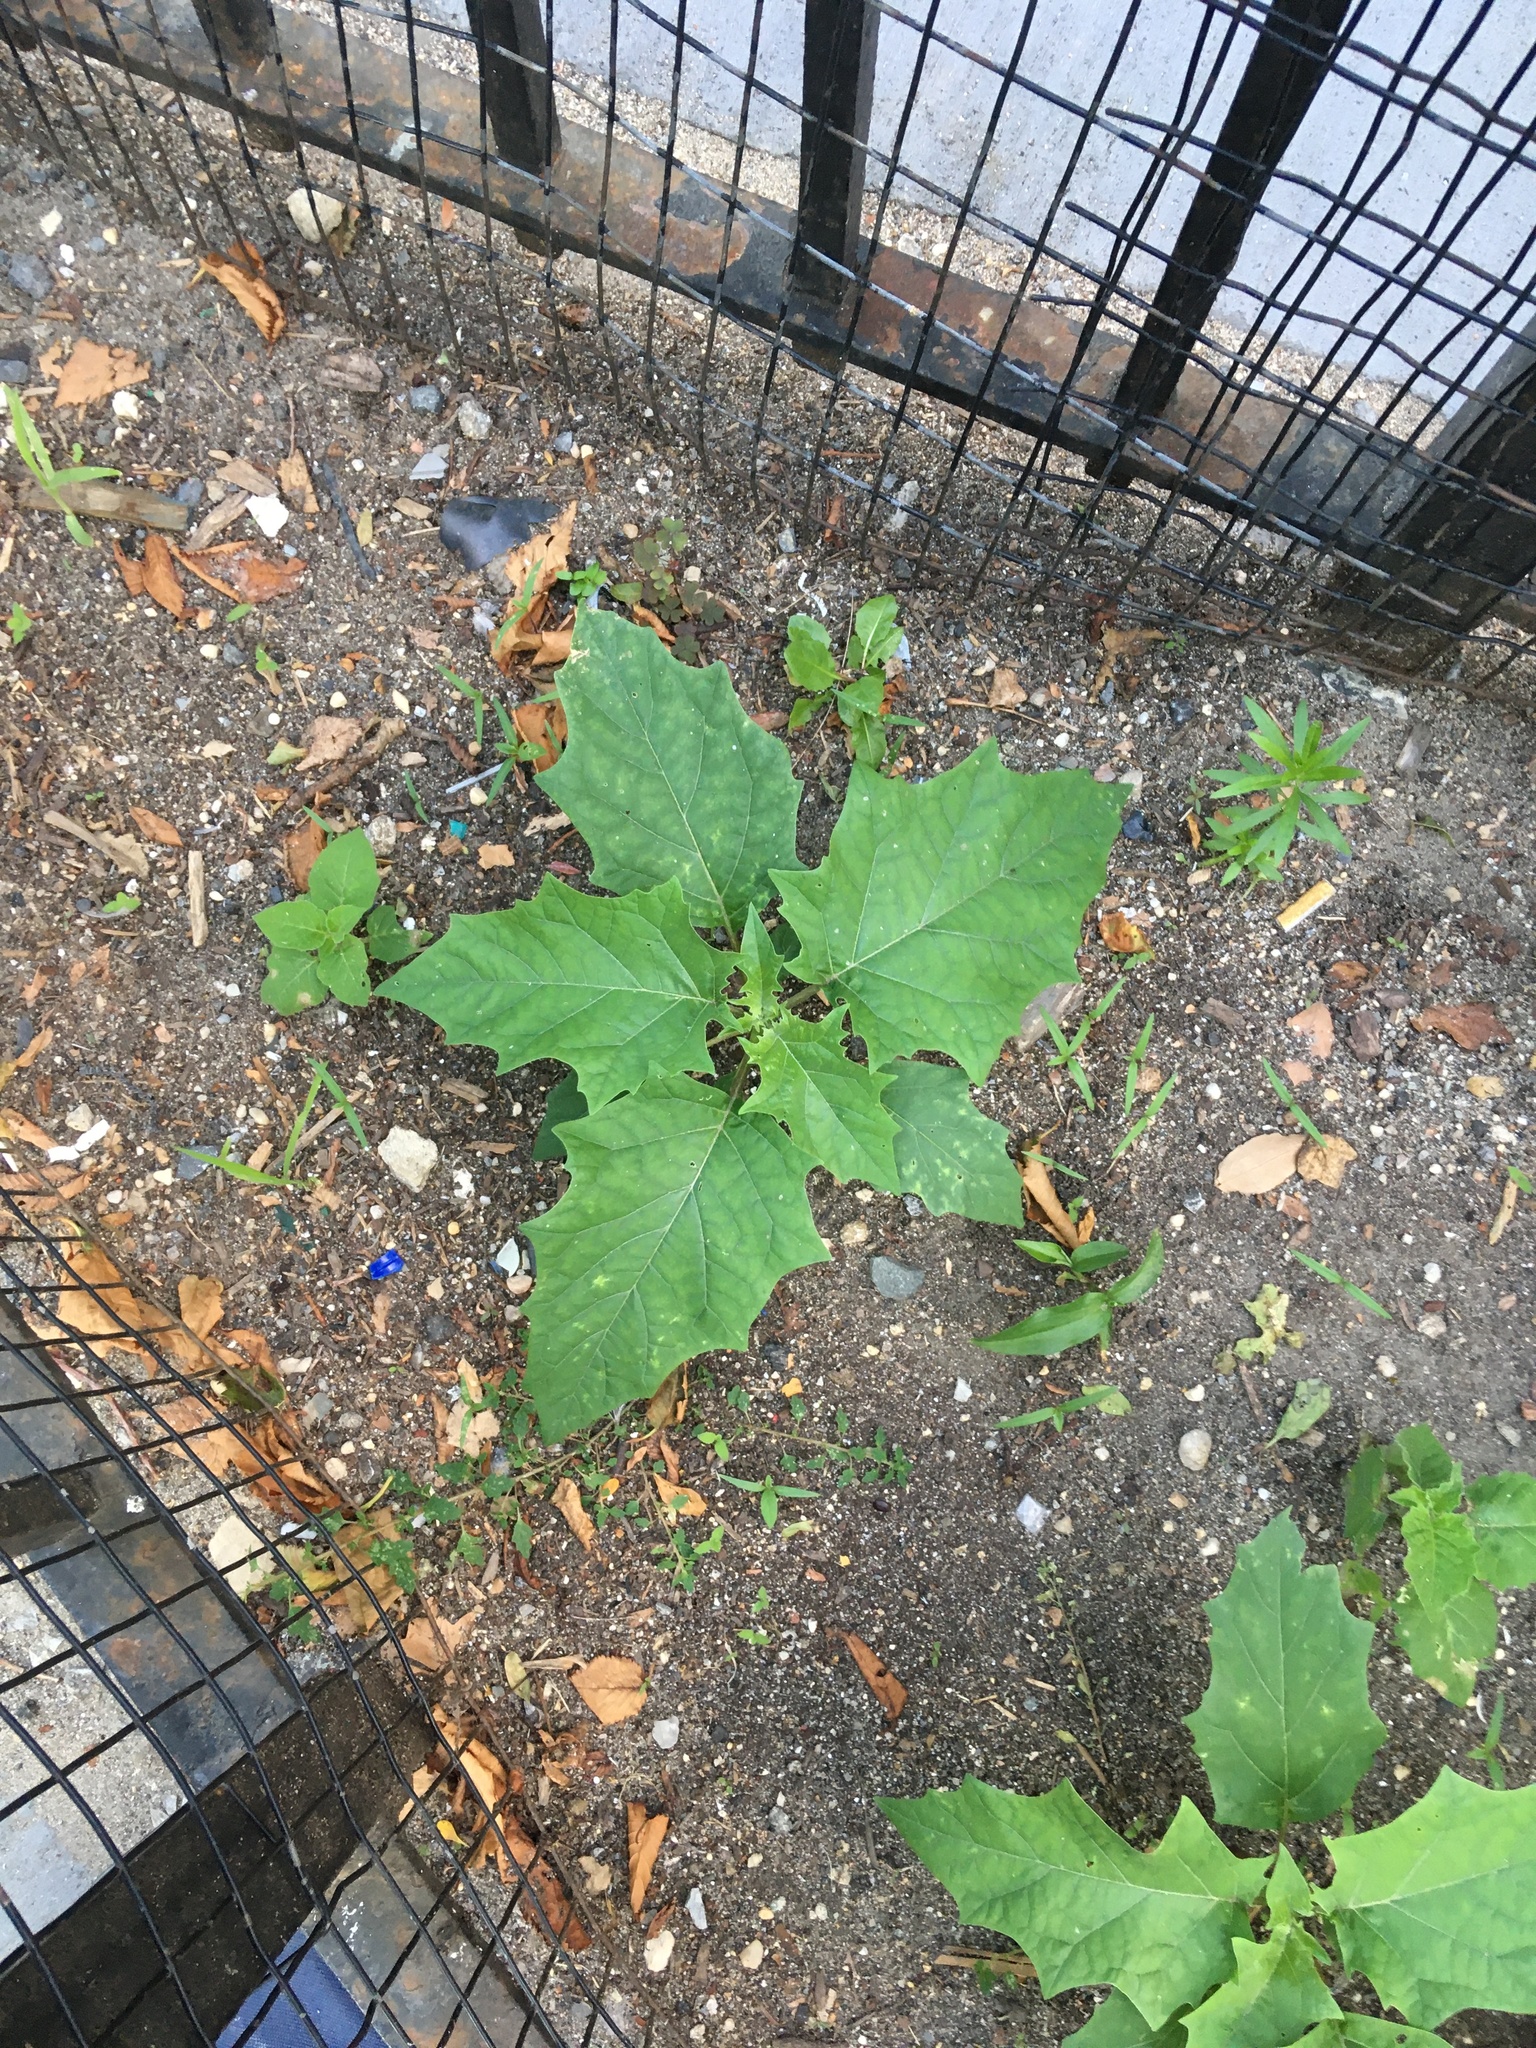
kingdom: Plantae
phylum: Tracheophyta
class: Magnoliopsida
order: Solanales
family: Solanaceae
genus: Datura
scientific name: Datura stramonium
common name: Thorn-apple
